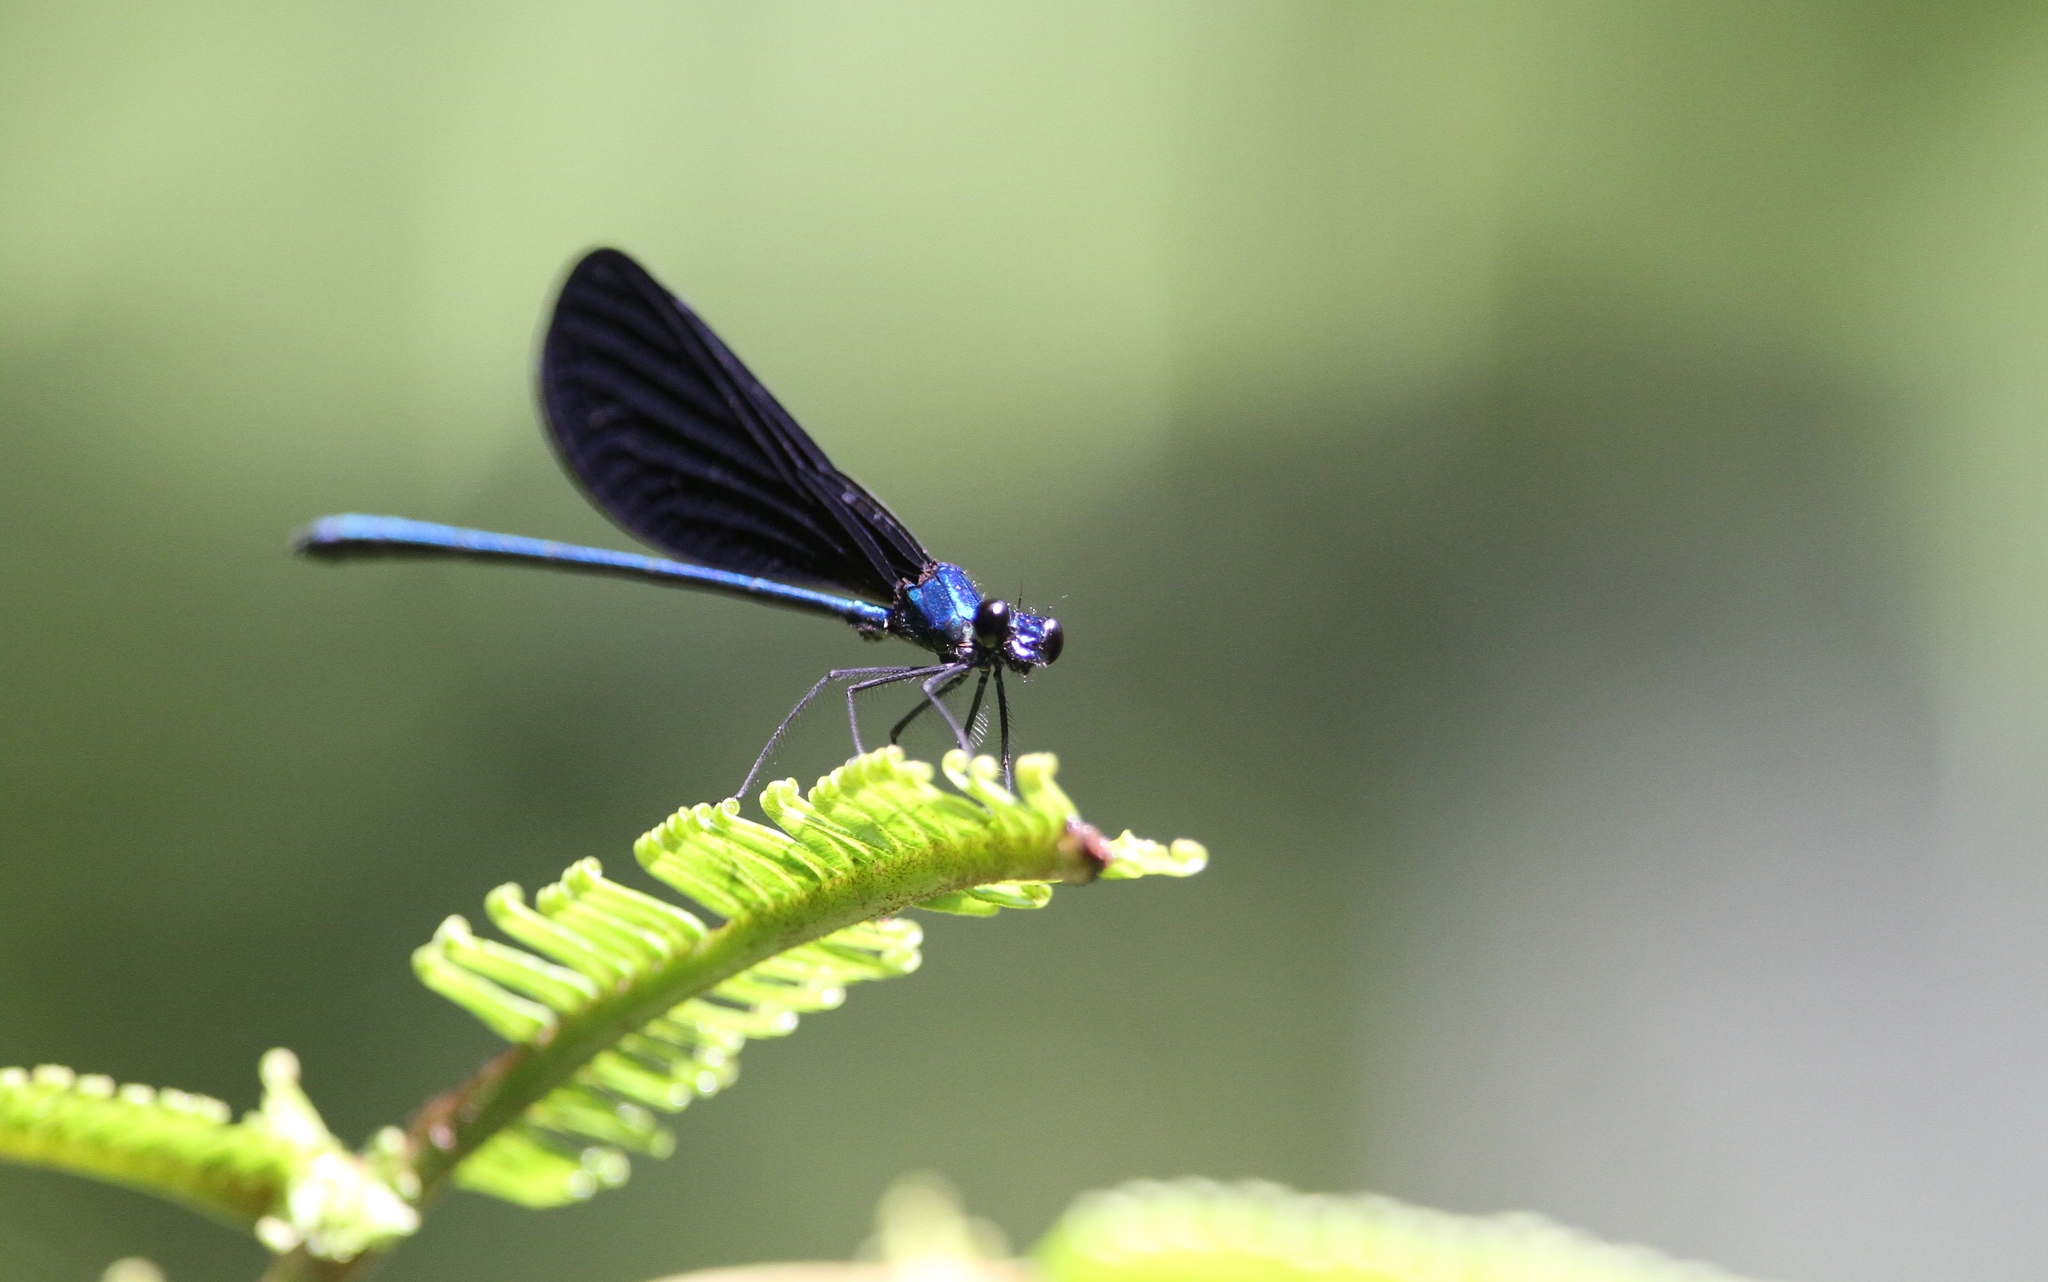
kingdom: Animalia
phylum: Arthropoda
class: Insecta
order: Odonata
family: Calopterygidae
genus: Vestalis
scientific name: Vestalis luctuosa
